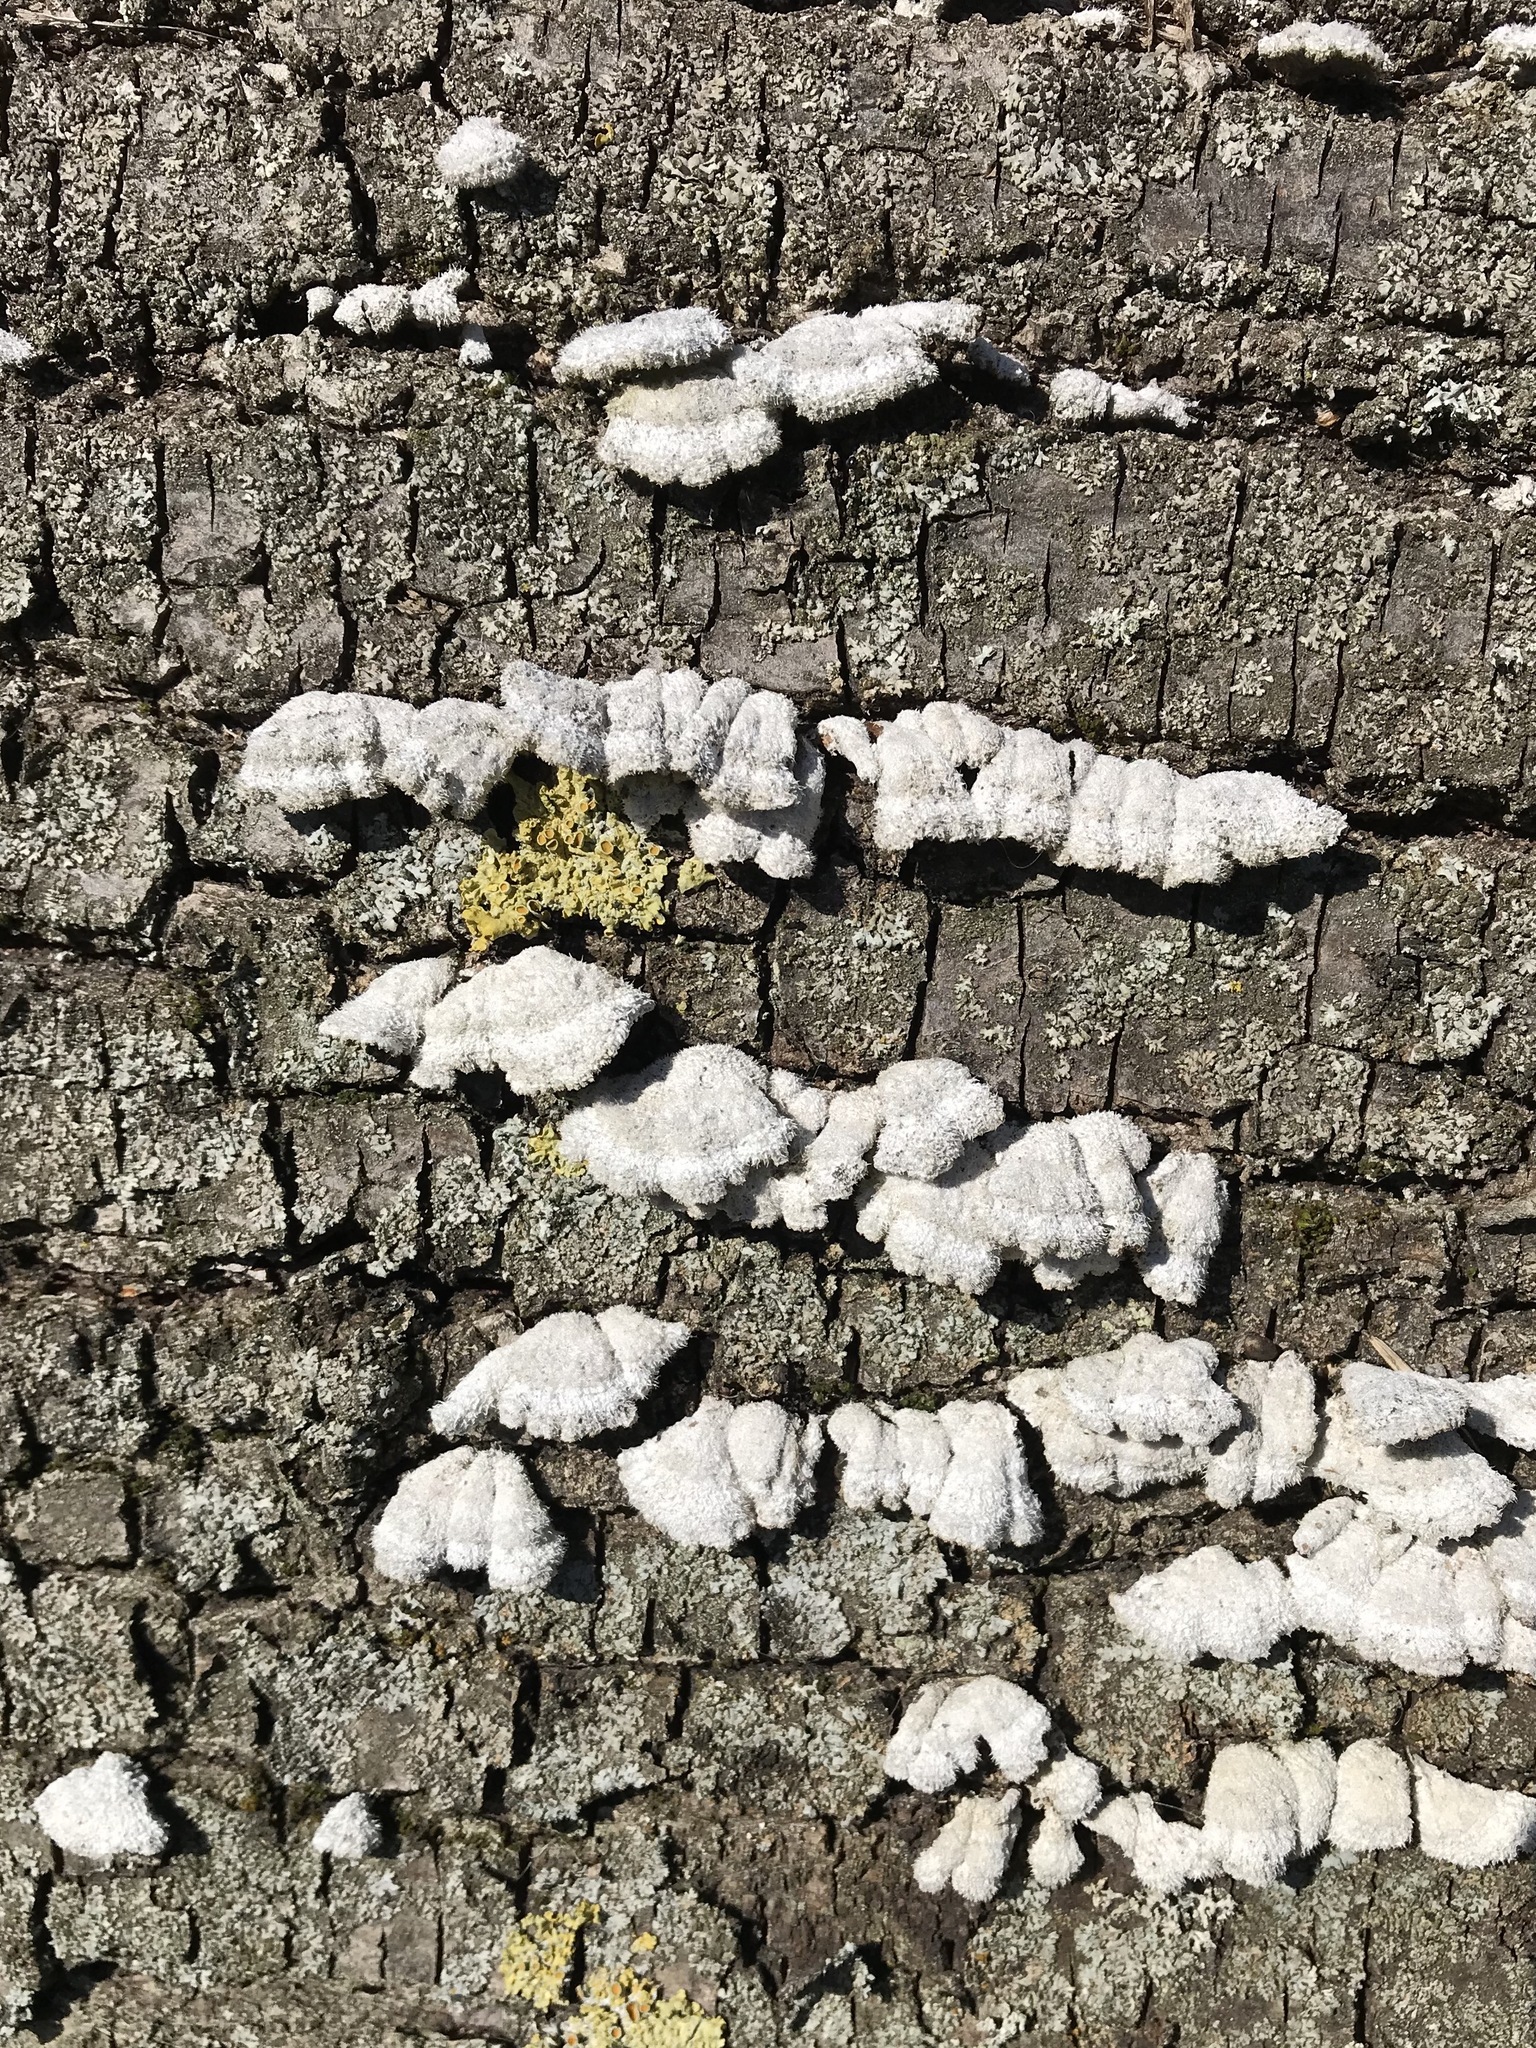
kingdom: Fungi
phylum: Basidiomycota
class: Agaricomycetes
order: Agaricales
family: Schizophyllaceae
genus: Schizophyllum
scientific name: Schizophyllum commune
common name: Common porecrust
